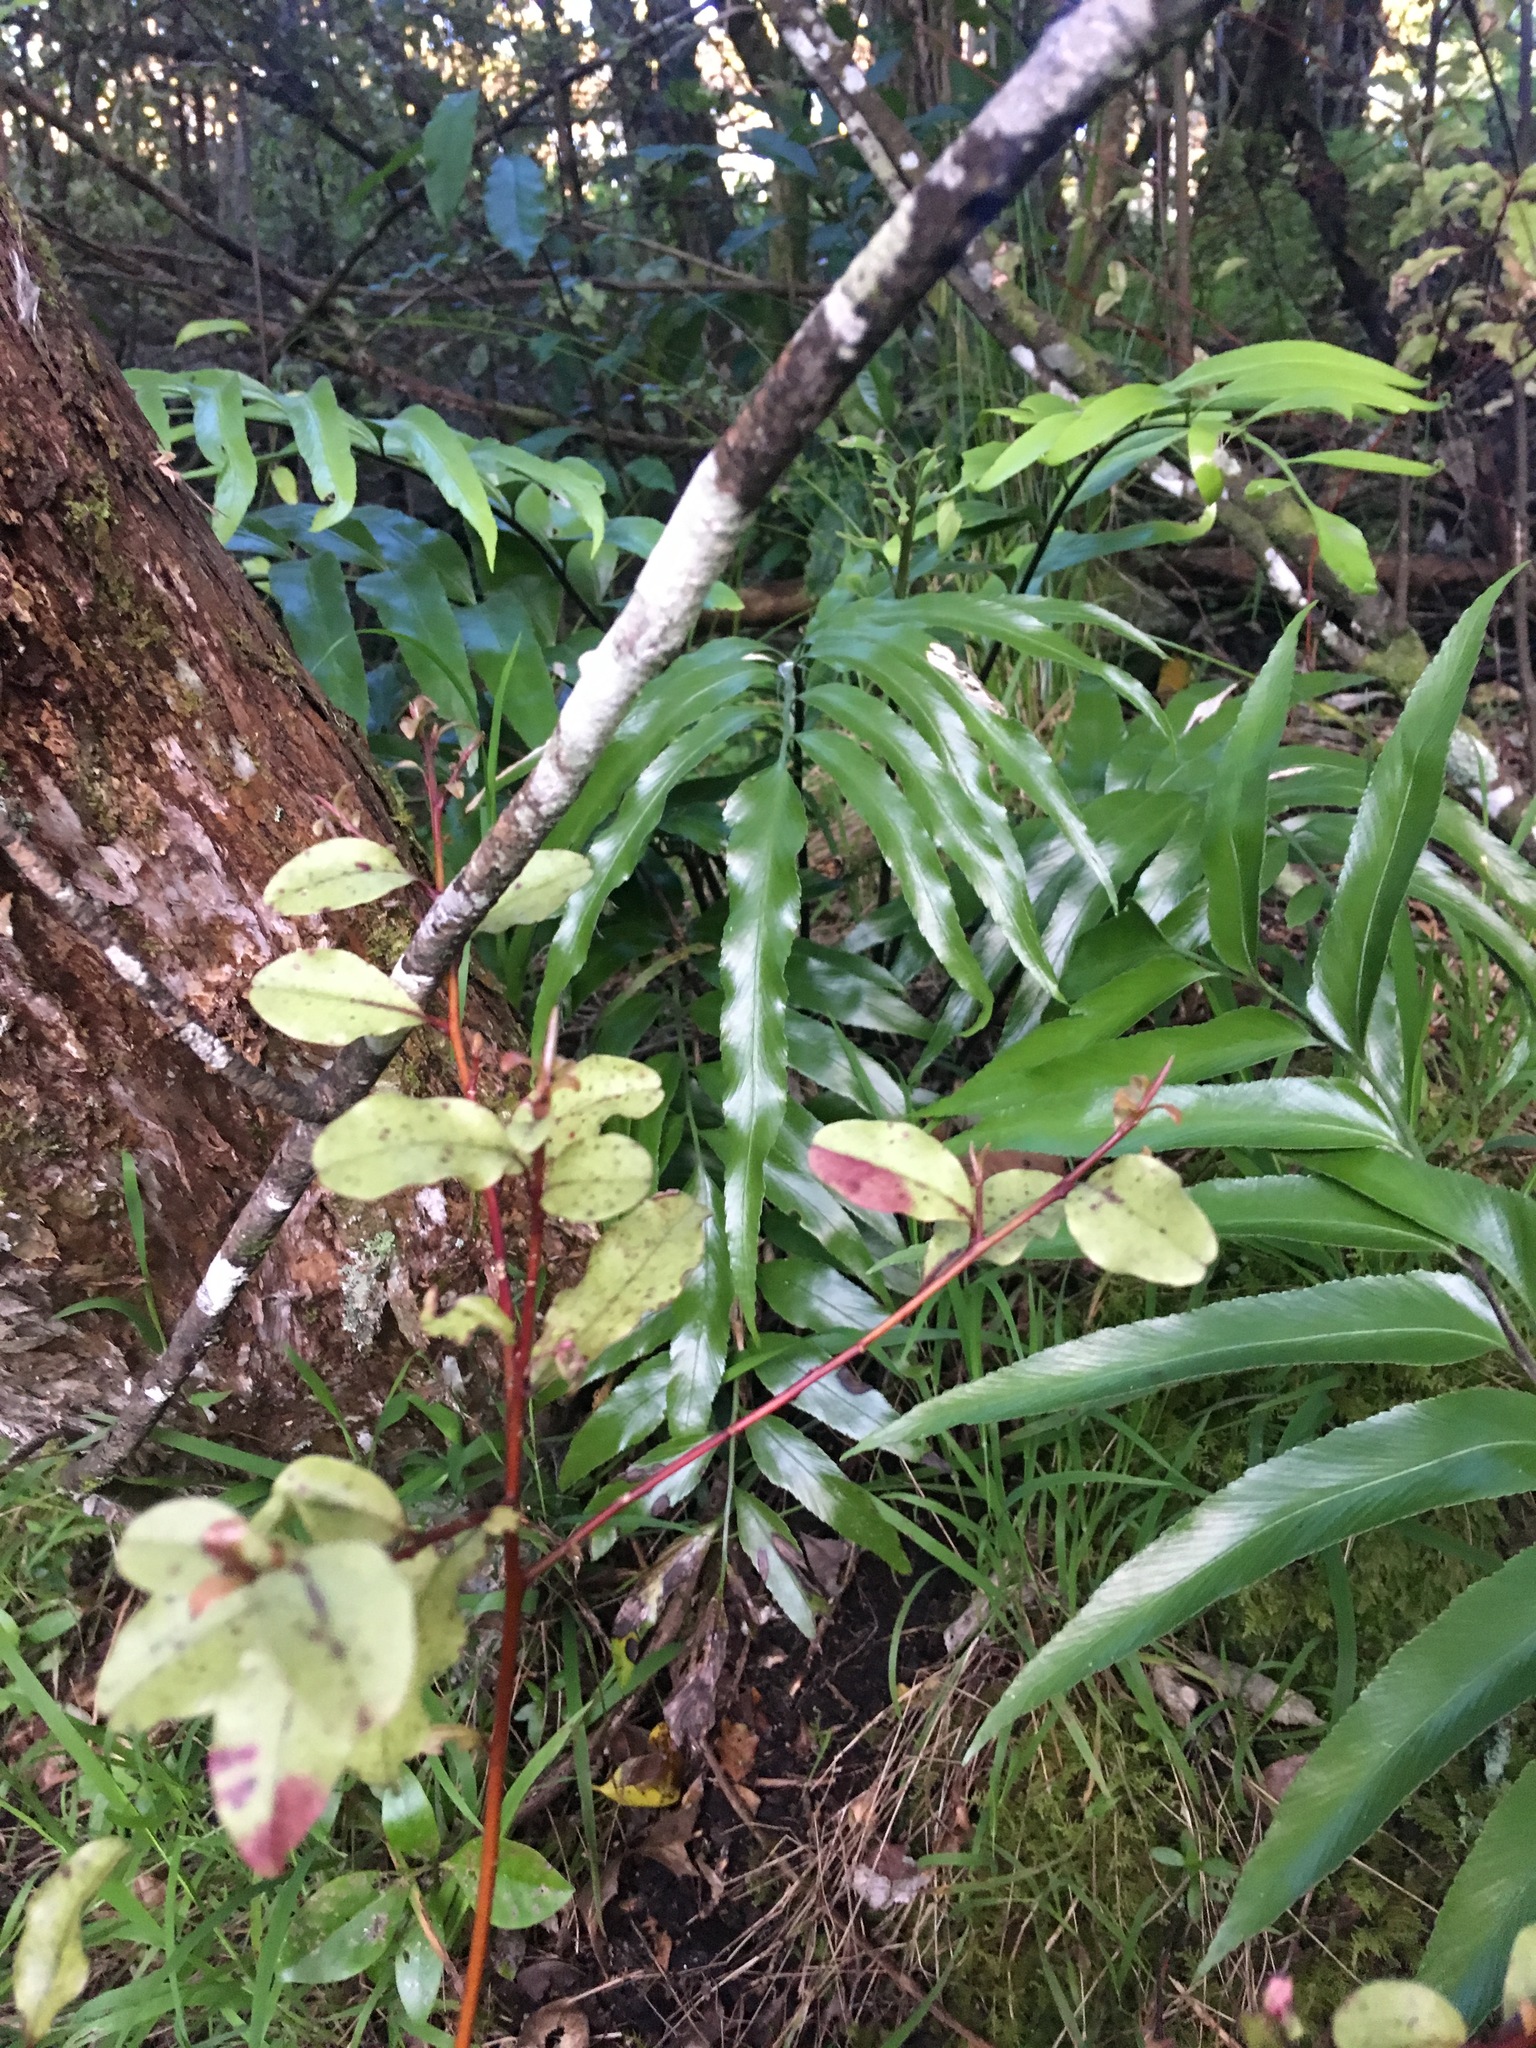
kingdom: Plantae
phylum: Tracheophyta
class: Polypodiopsida
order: Polypodiales
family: Aspleniaceae
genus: Asplenium
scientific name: Asplenium oblongifolium
